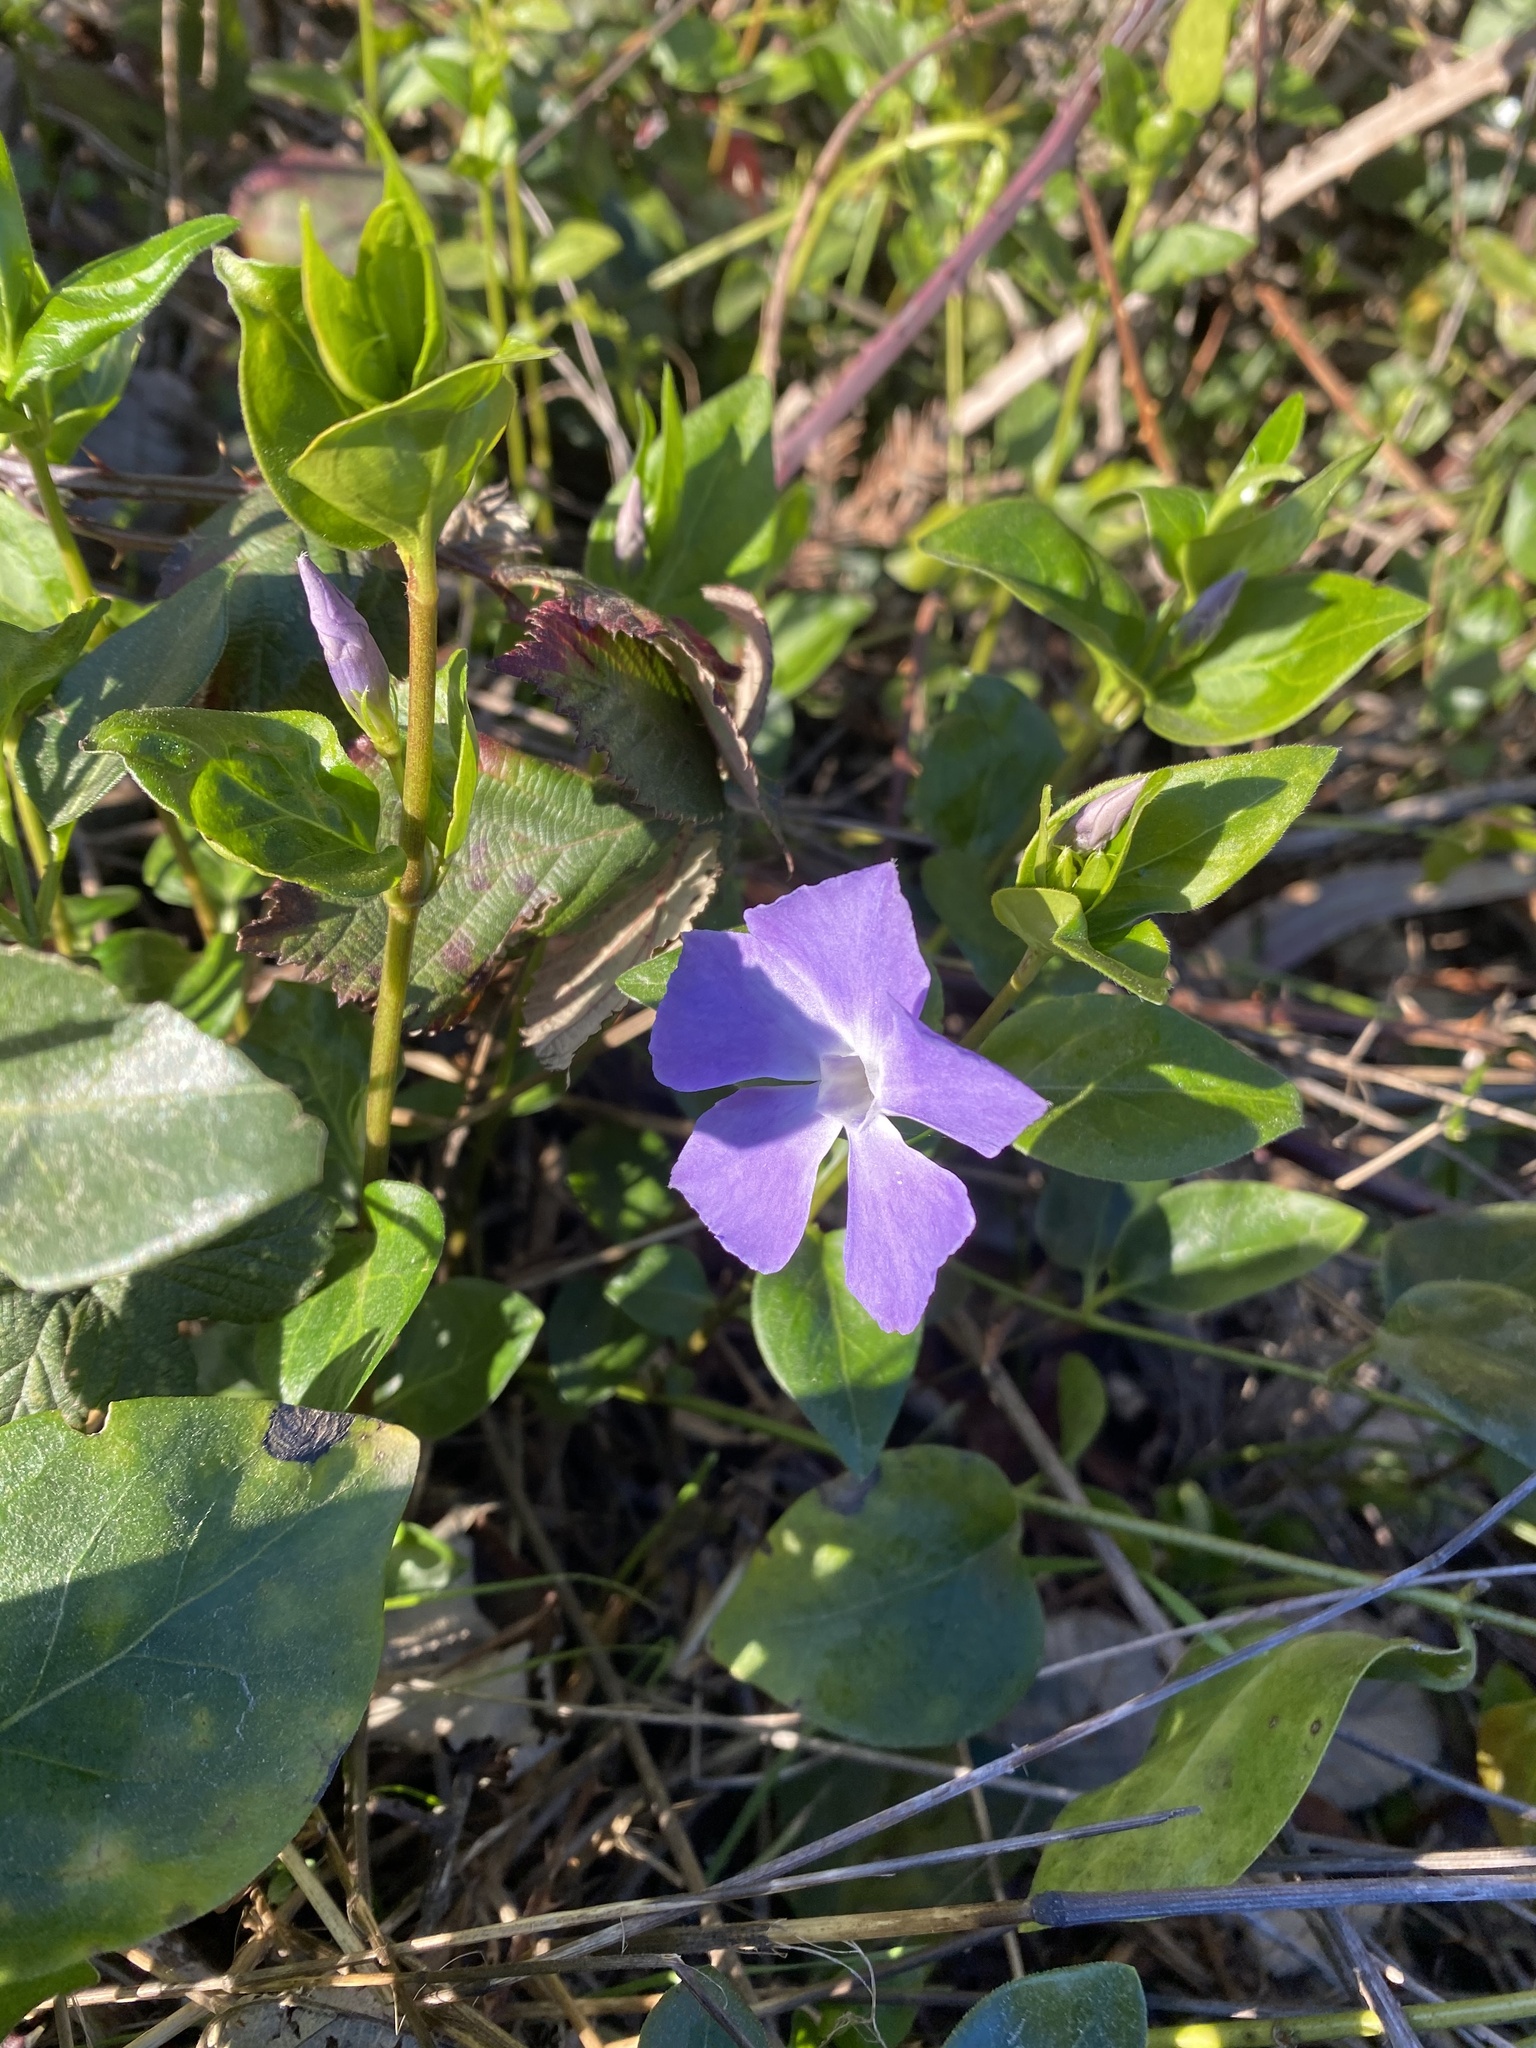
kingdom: Plantae
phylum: Tracheophyta
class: Magnoliopsida
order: Gentianales
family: Apocynaceae
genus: Vinca
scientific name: Vinca major
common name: Greater periwinkle
